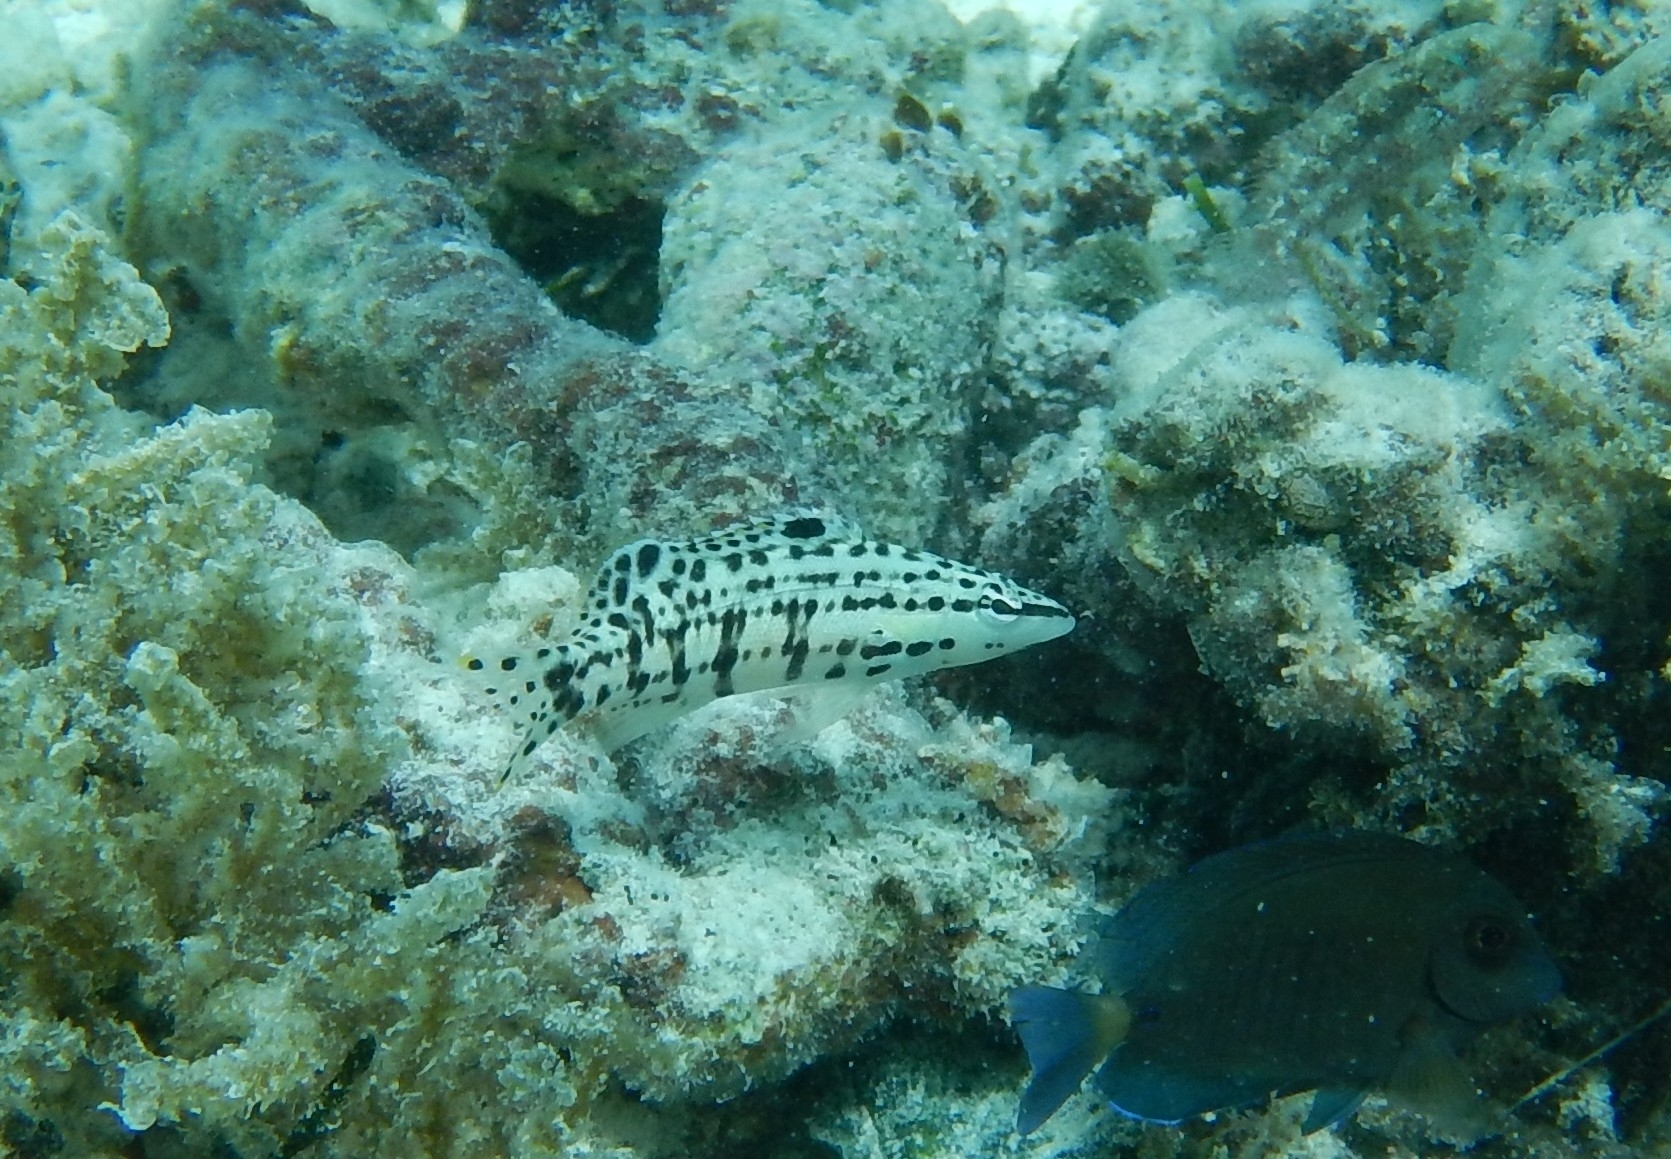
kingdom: Animalia
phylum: Chordata
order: Perciformes
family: Serranidae
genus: Serranus
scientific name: Serranus tigrinus
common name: Harlequin bass
